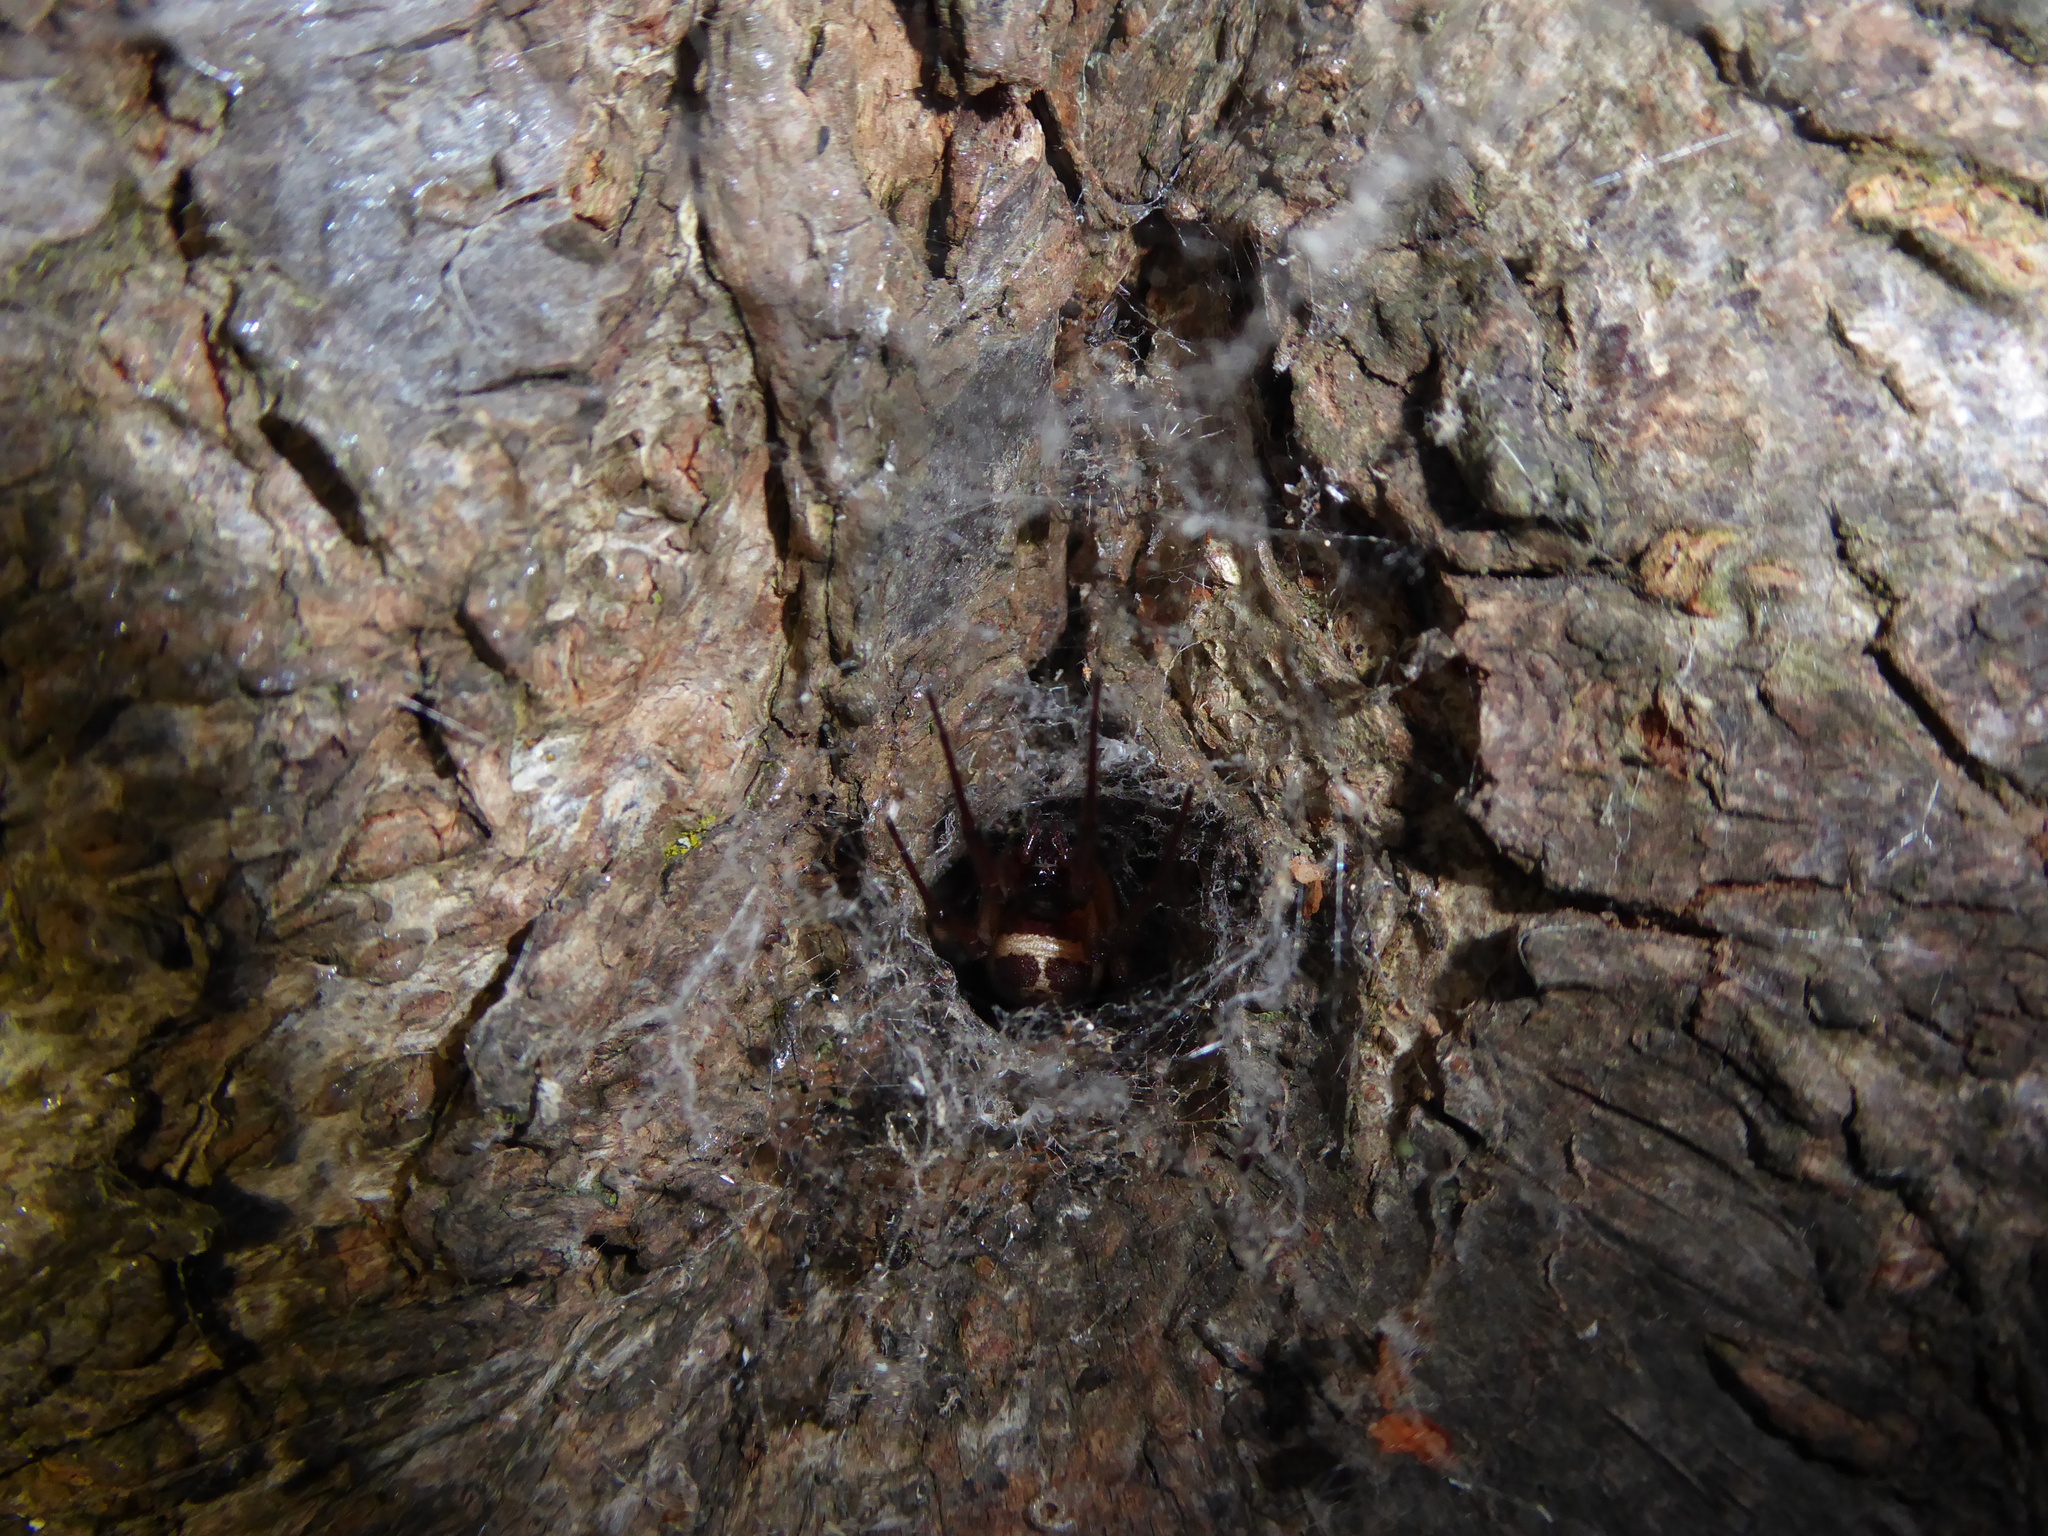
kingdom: Animalia
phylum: Arthropoda
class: Arachnida
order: Araneae
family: Theridiidae
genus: Steatoda
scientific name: Steatoda nobilis
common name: Cobweb weaver
